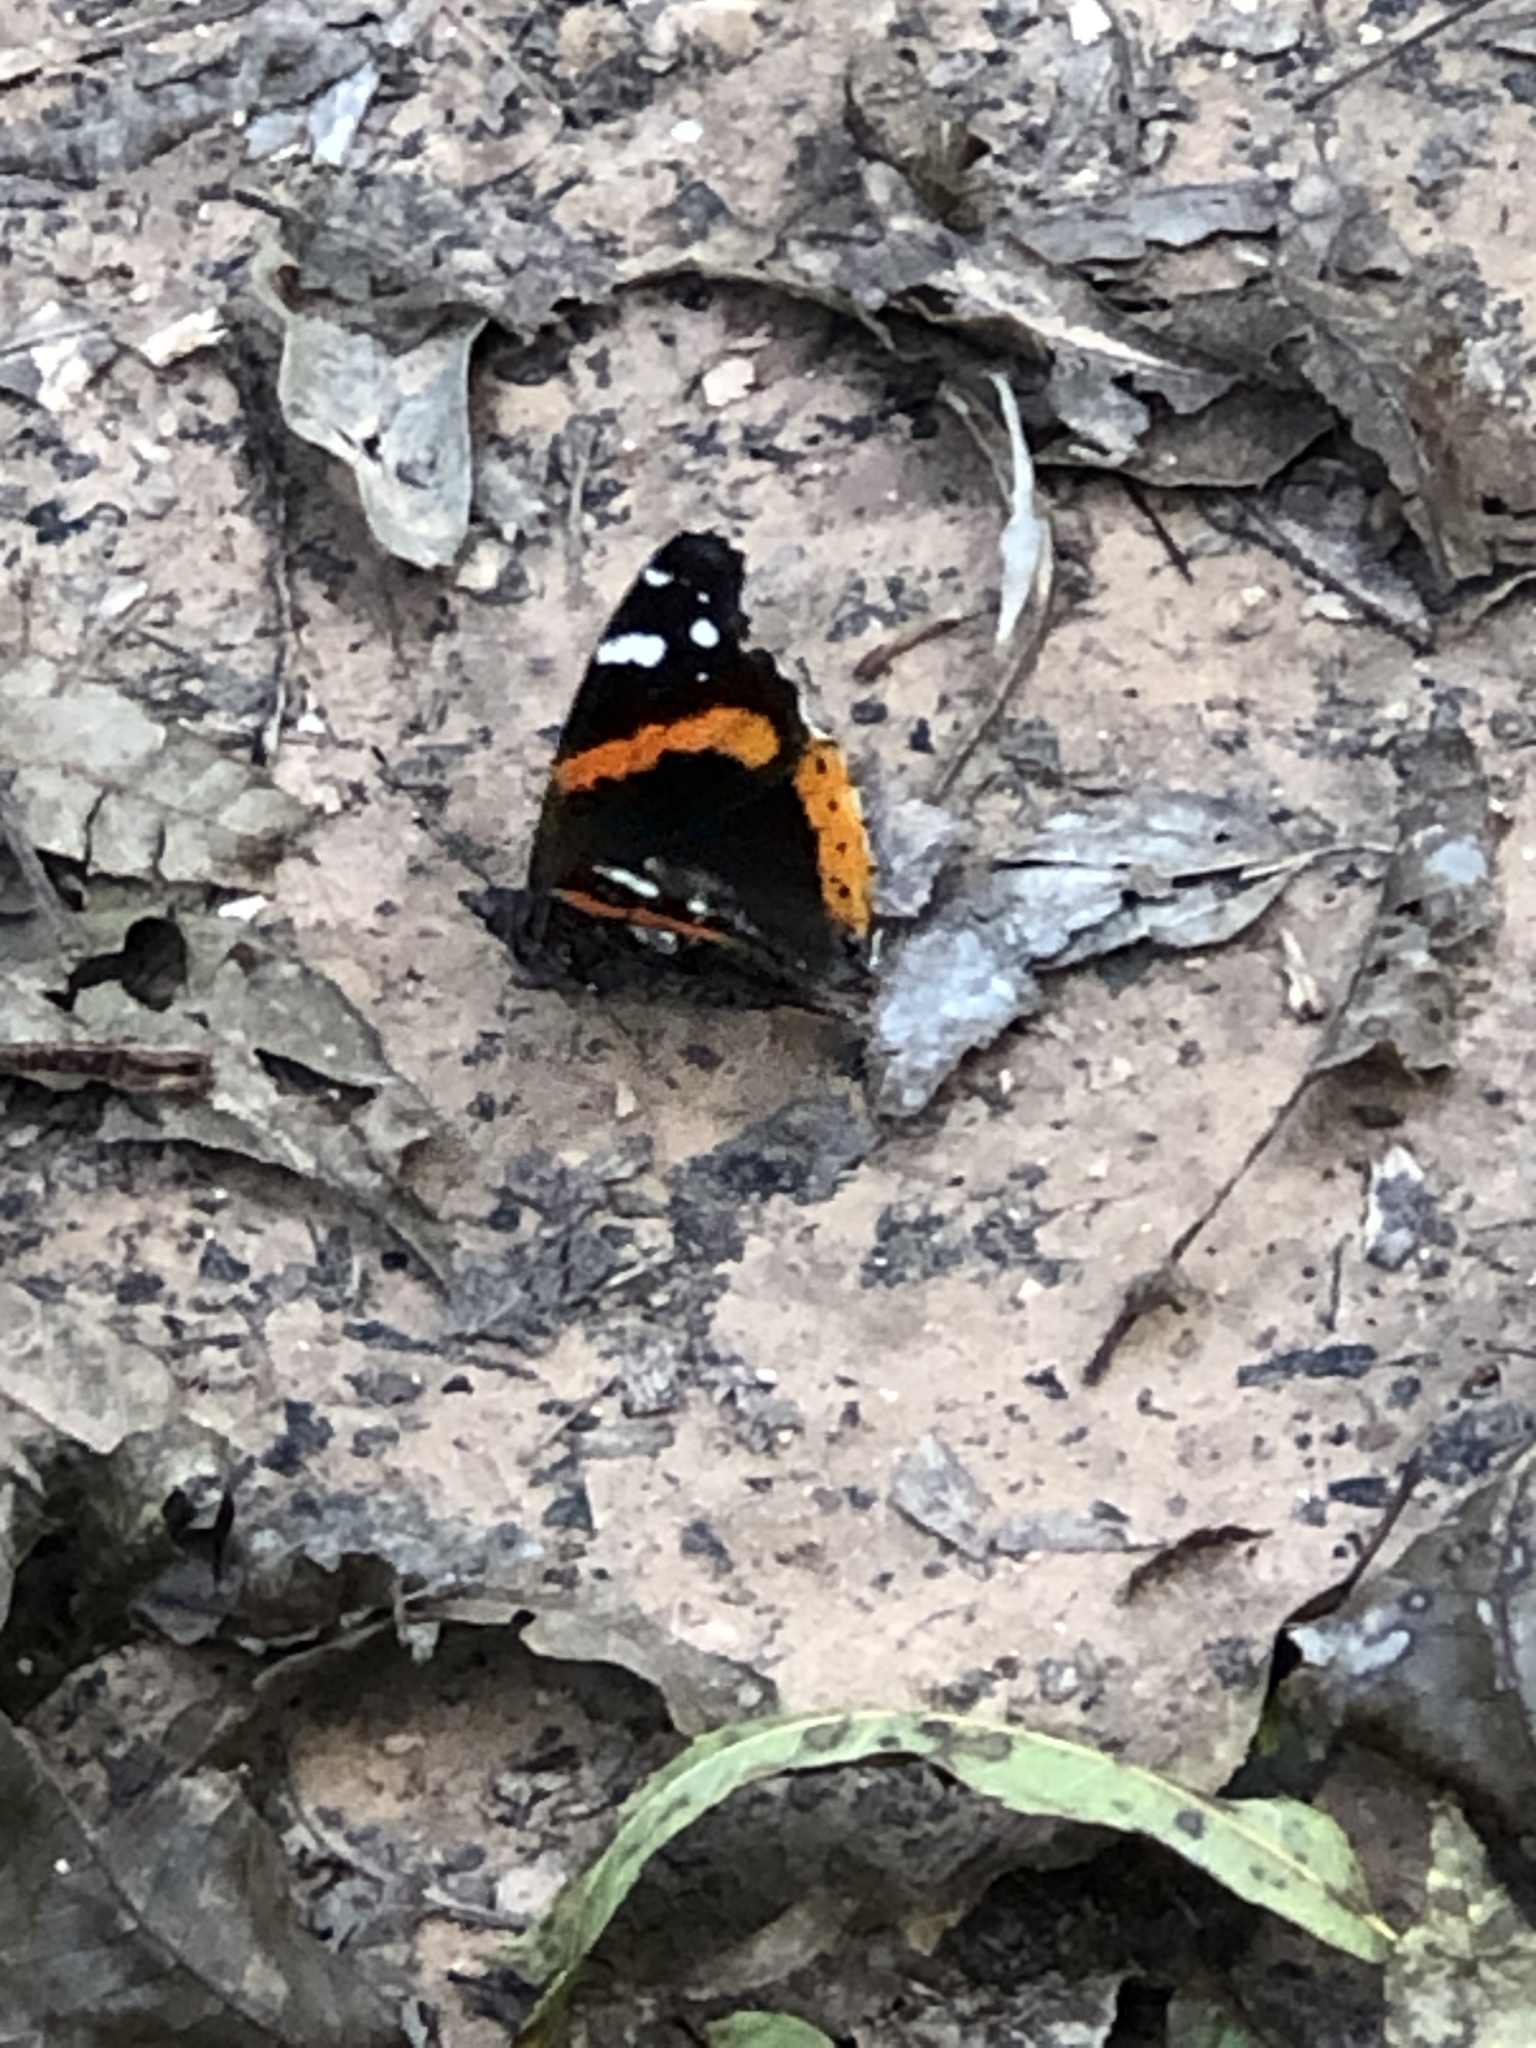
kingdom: Animalia
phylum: Arthropoda
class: Insecta
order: Lepidoptera
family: Nymphalidae
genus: Vanessa
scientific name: Vanessa atalanta
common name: Red admiral
